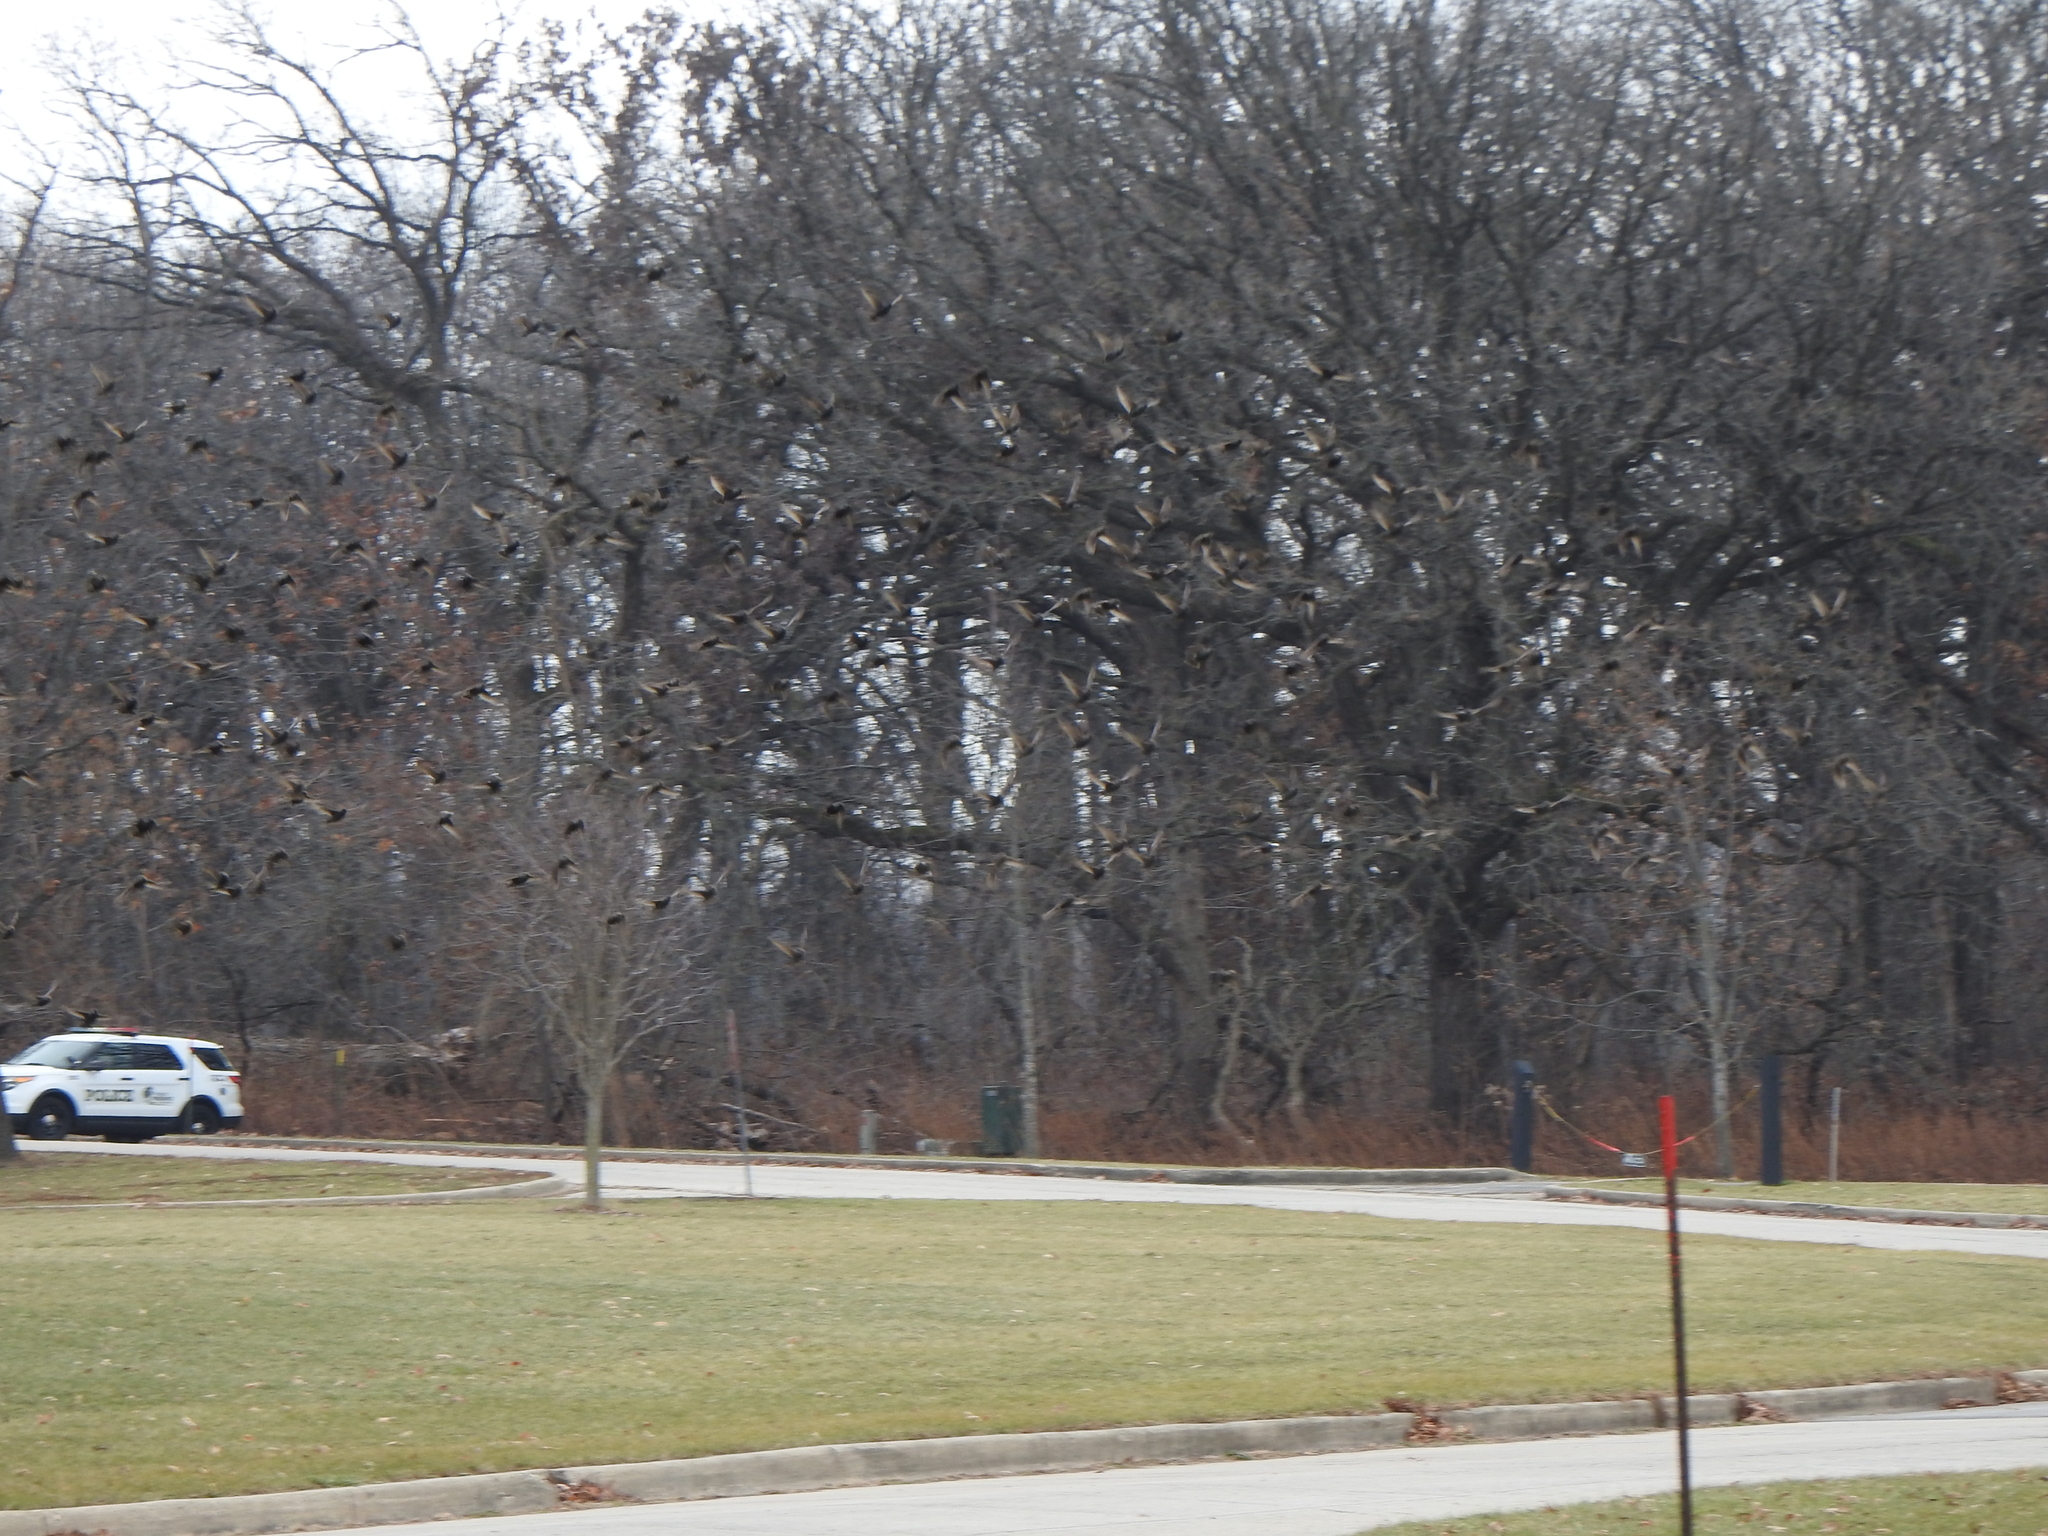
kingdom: Animalia
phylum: Chordata
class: Aves
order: Passeriformes
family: Sturnidae
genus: Sturnus
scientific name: Sturnus vulgaris
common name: Common starling
